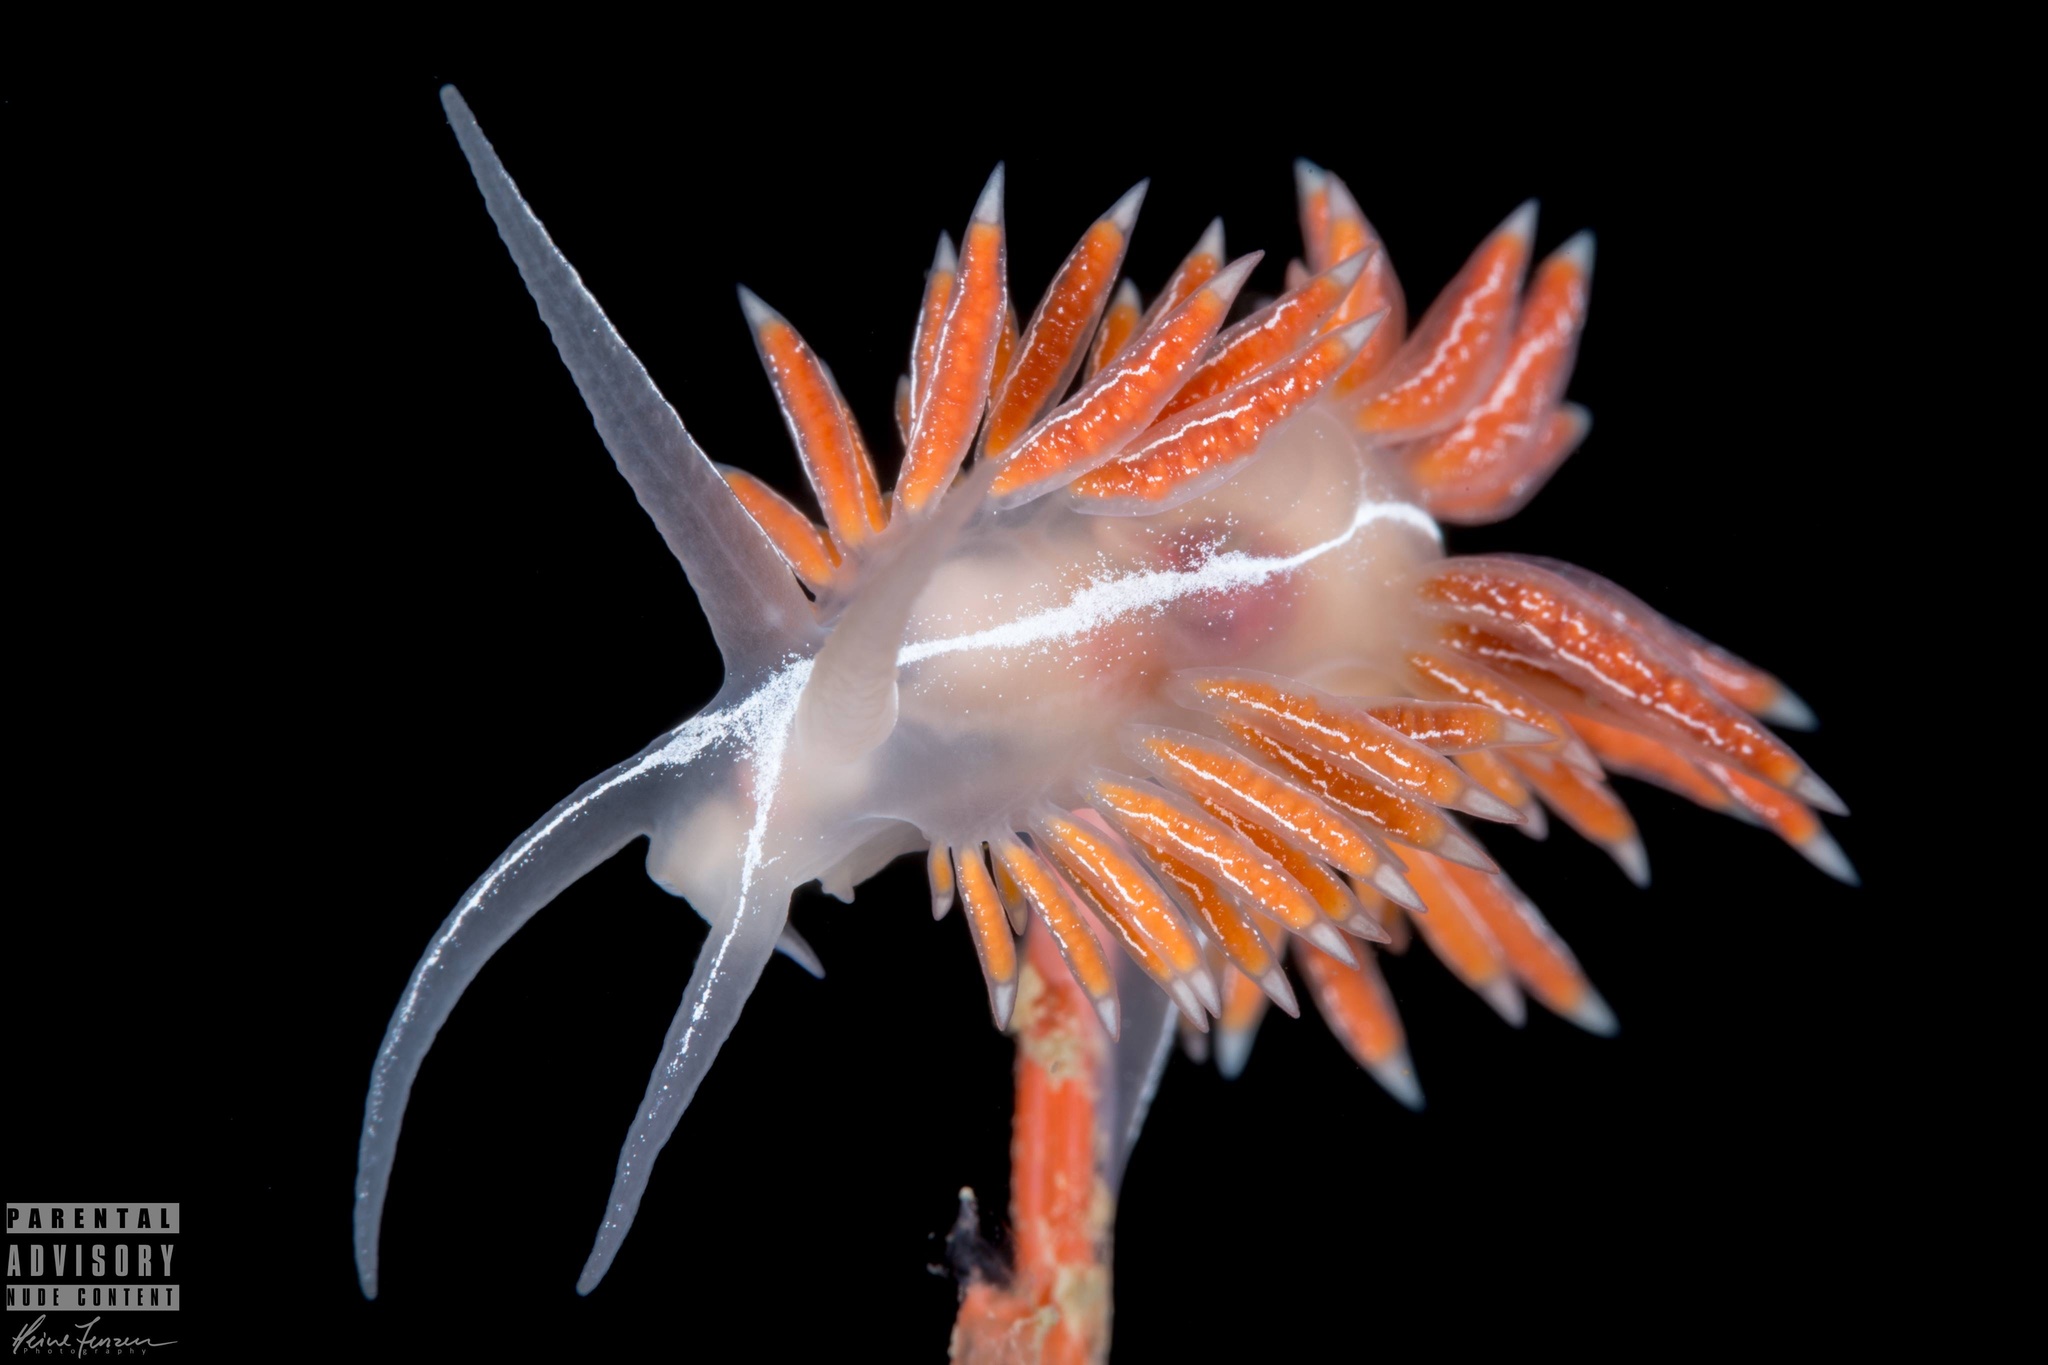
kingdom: Animalia
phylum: Mollusca
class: Gastropoda
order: Nudibranchia
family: Coryphellidae
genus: Coryphella
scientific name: Coryphella chriskaugei
